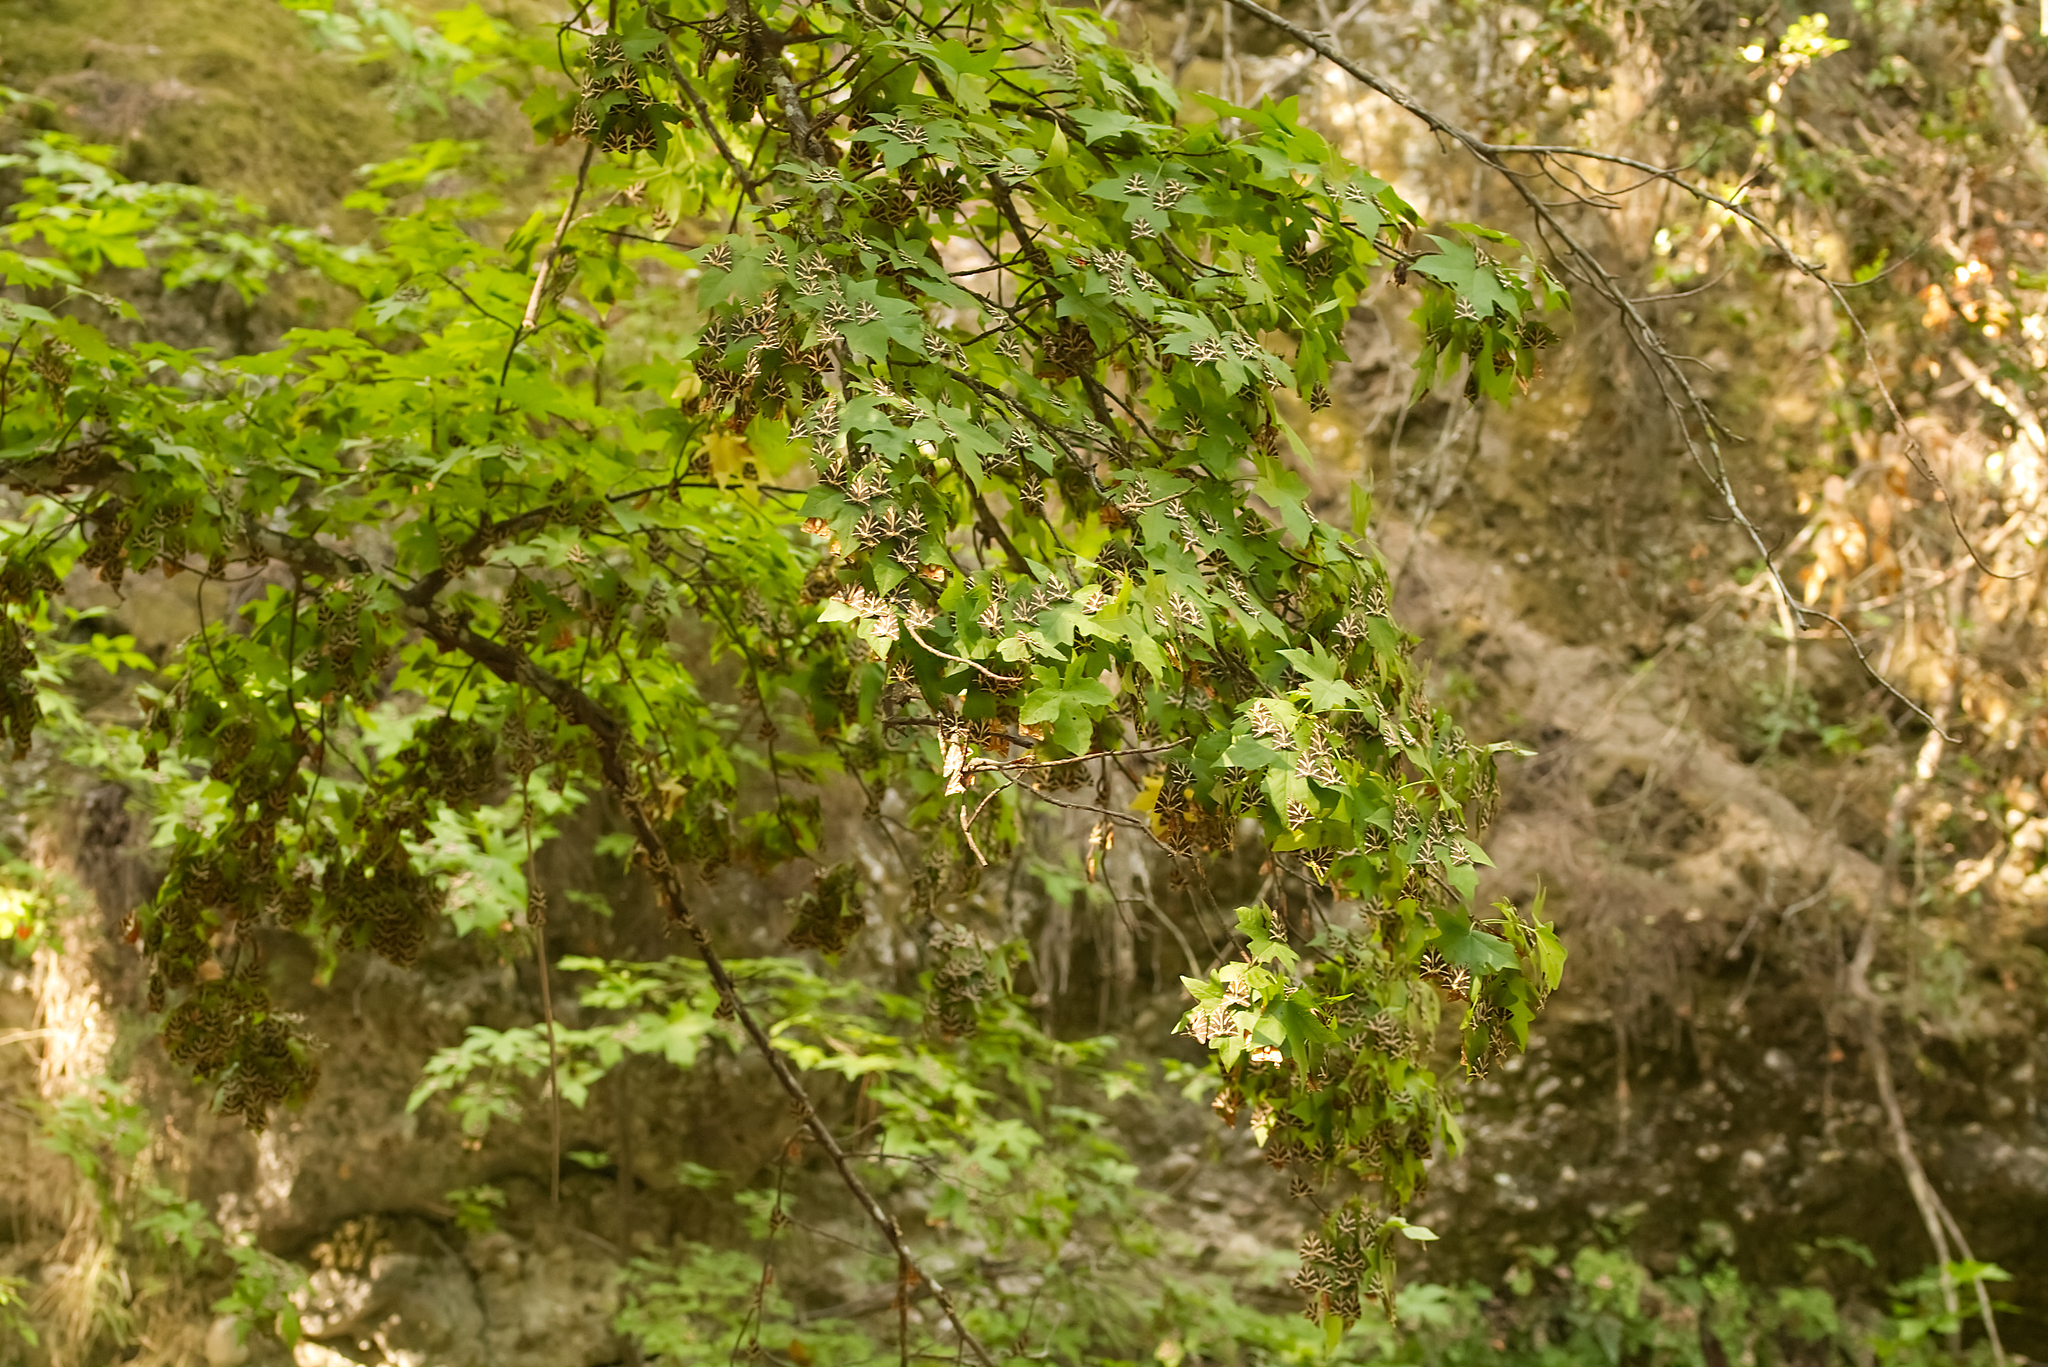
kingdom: Animalia
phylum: Arthropoda
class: Insecta
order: Lepidoptera
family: Erebidae
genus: Euplagia
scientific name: Euplagia quadripunctaria
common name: Jersey tiger
